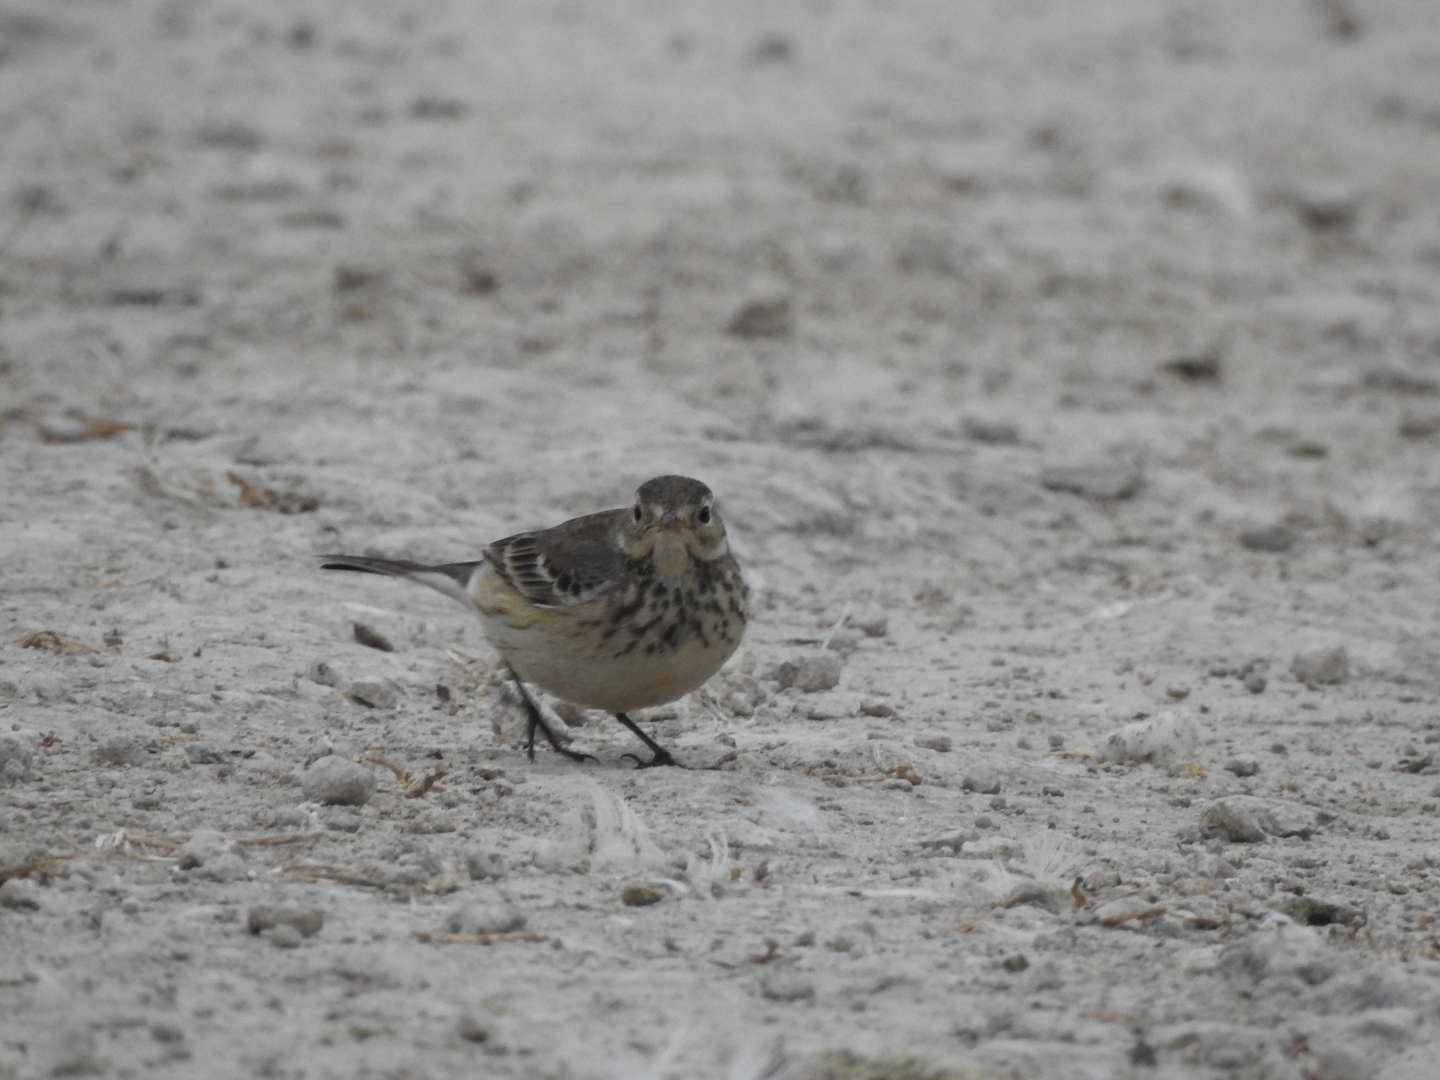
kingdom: Animalia
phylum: Chordata
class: Aves
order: Passeriformes
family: Motacillidae
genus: Anthus
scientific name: Anthus rubescens
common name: Buff-bellied pipit
